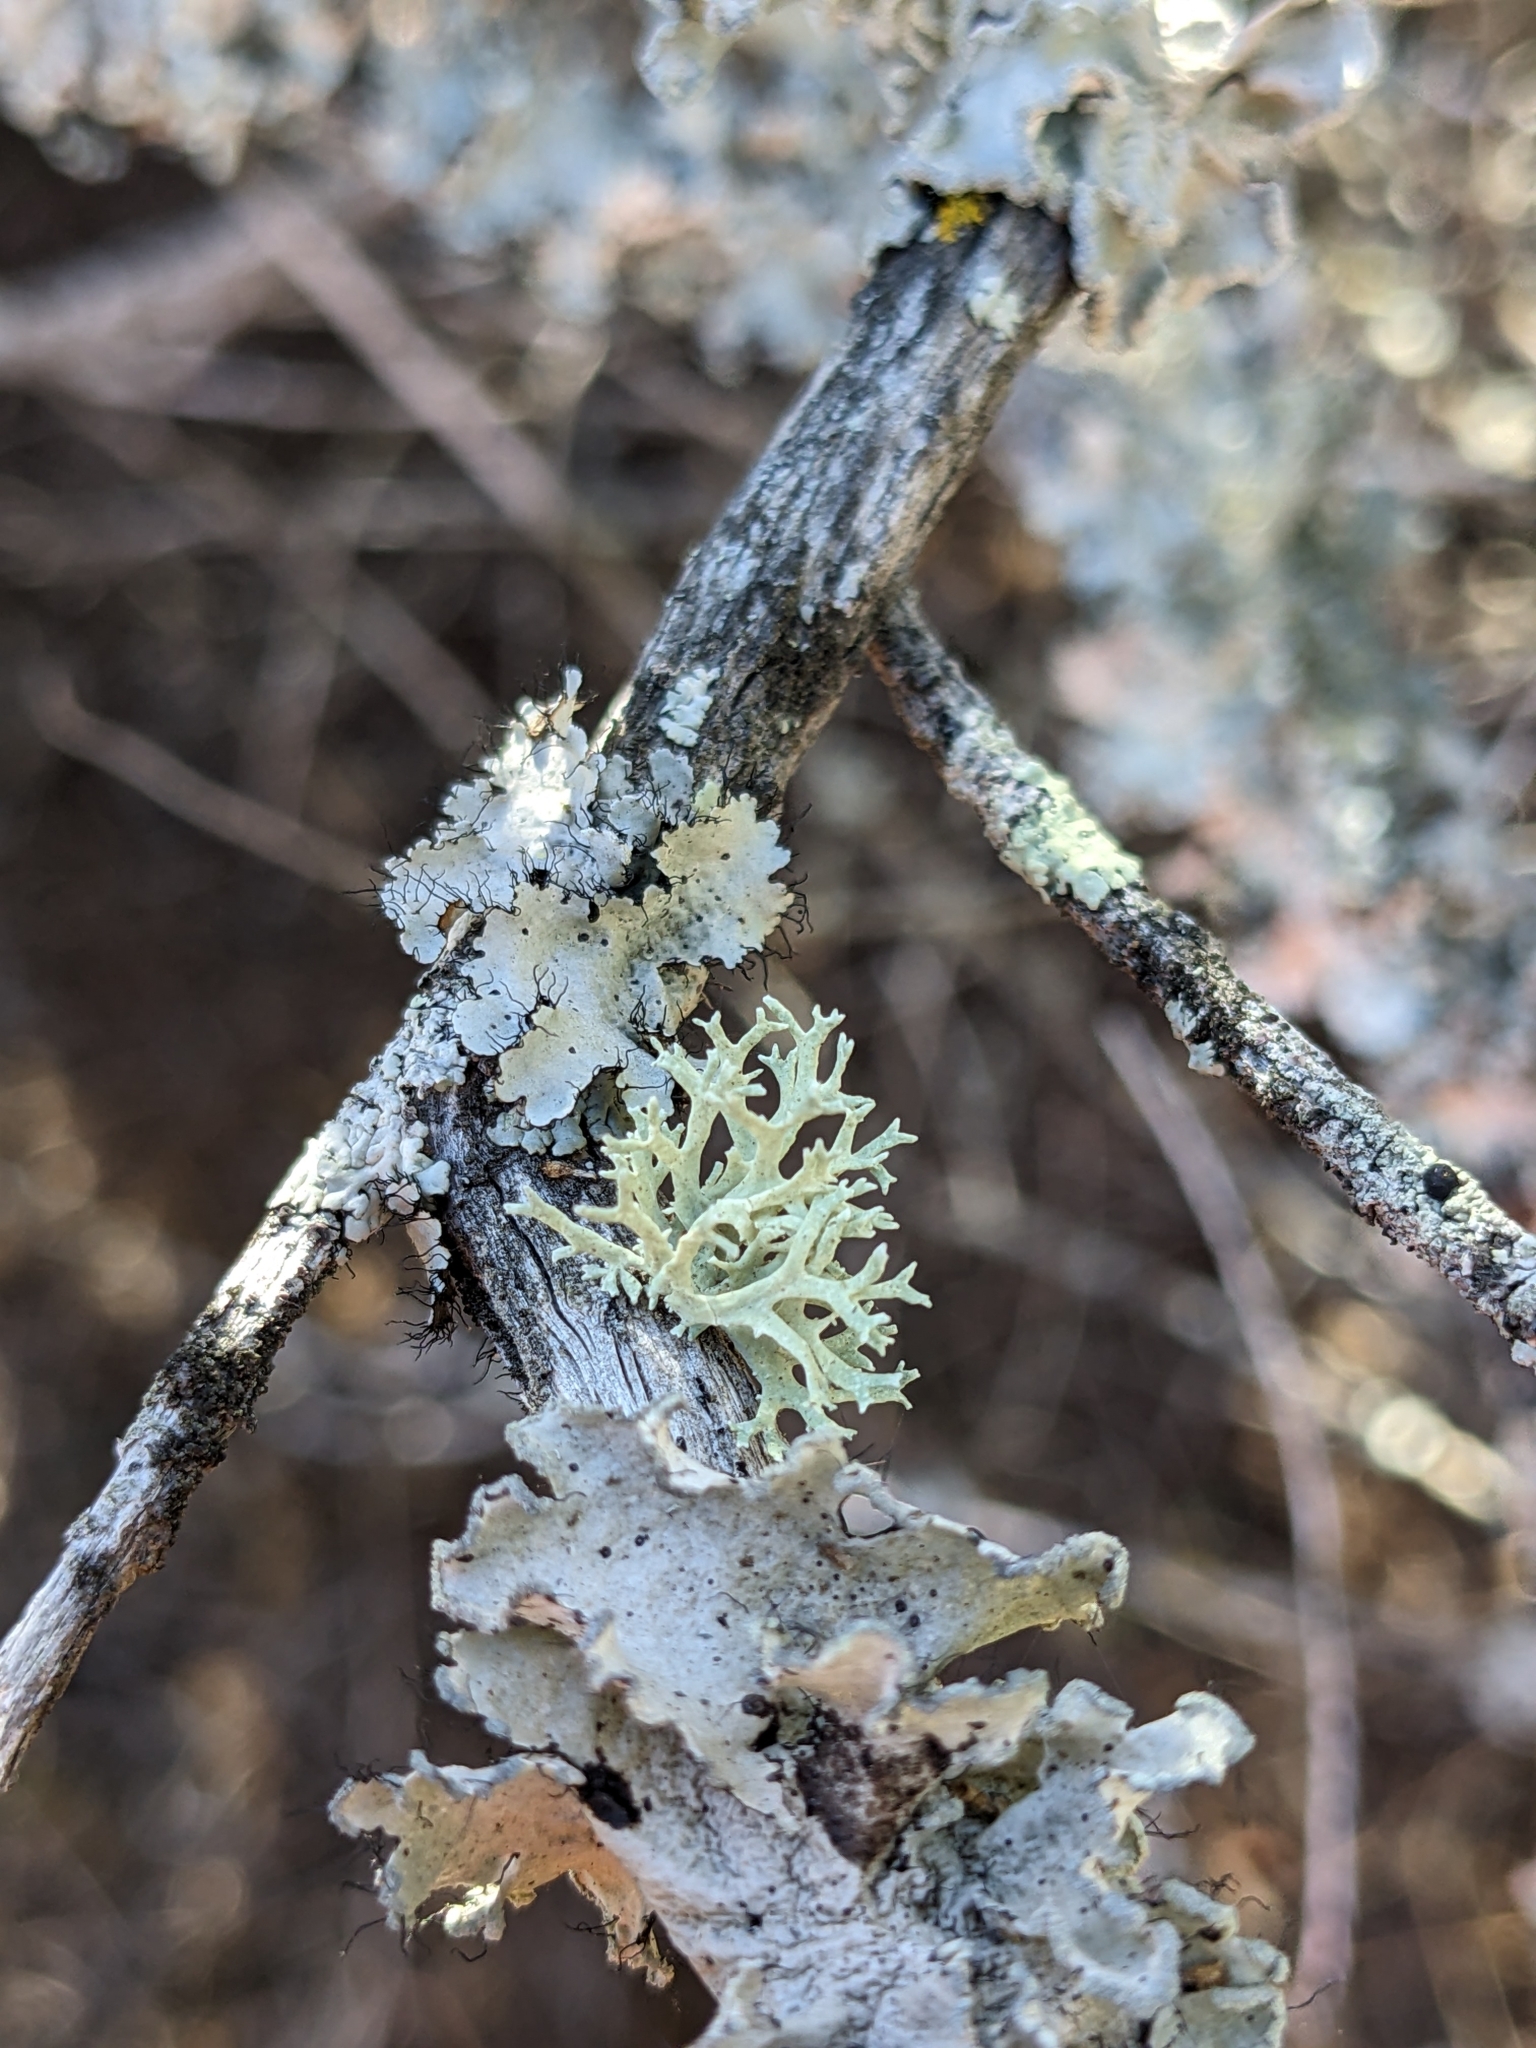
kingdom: Fungi
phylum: Ascomycota
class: Lecanoromycetes
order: Lecanorales
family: Parmeliaceae
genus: Evernia
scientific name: Evernia prunastri
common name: Oak moss
